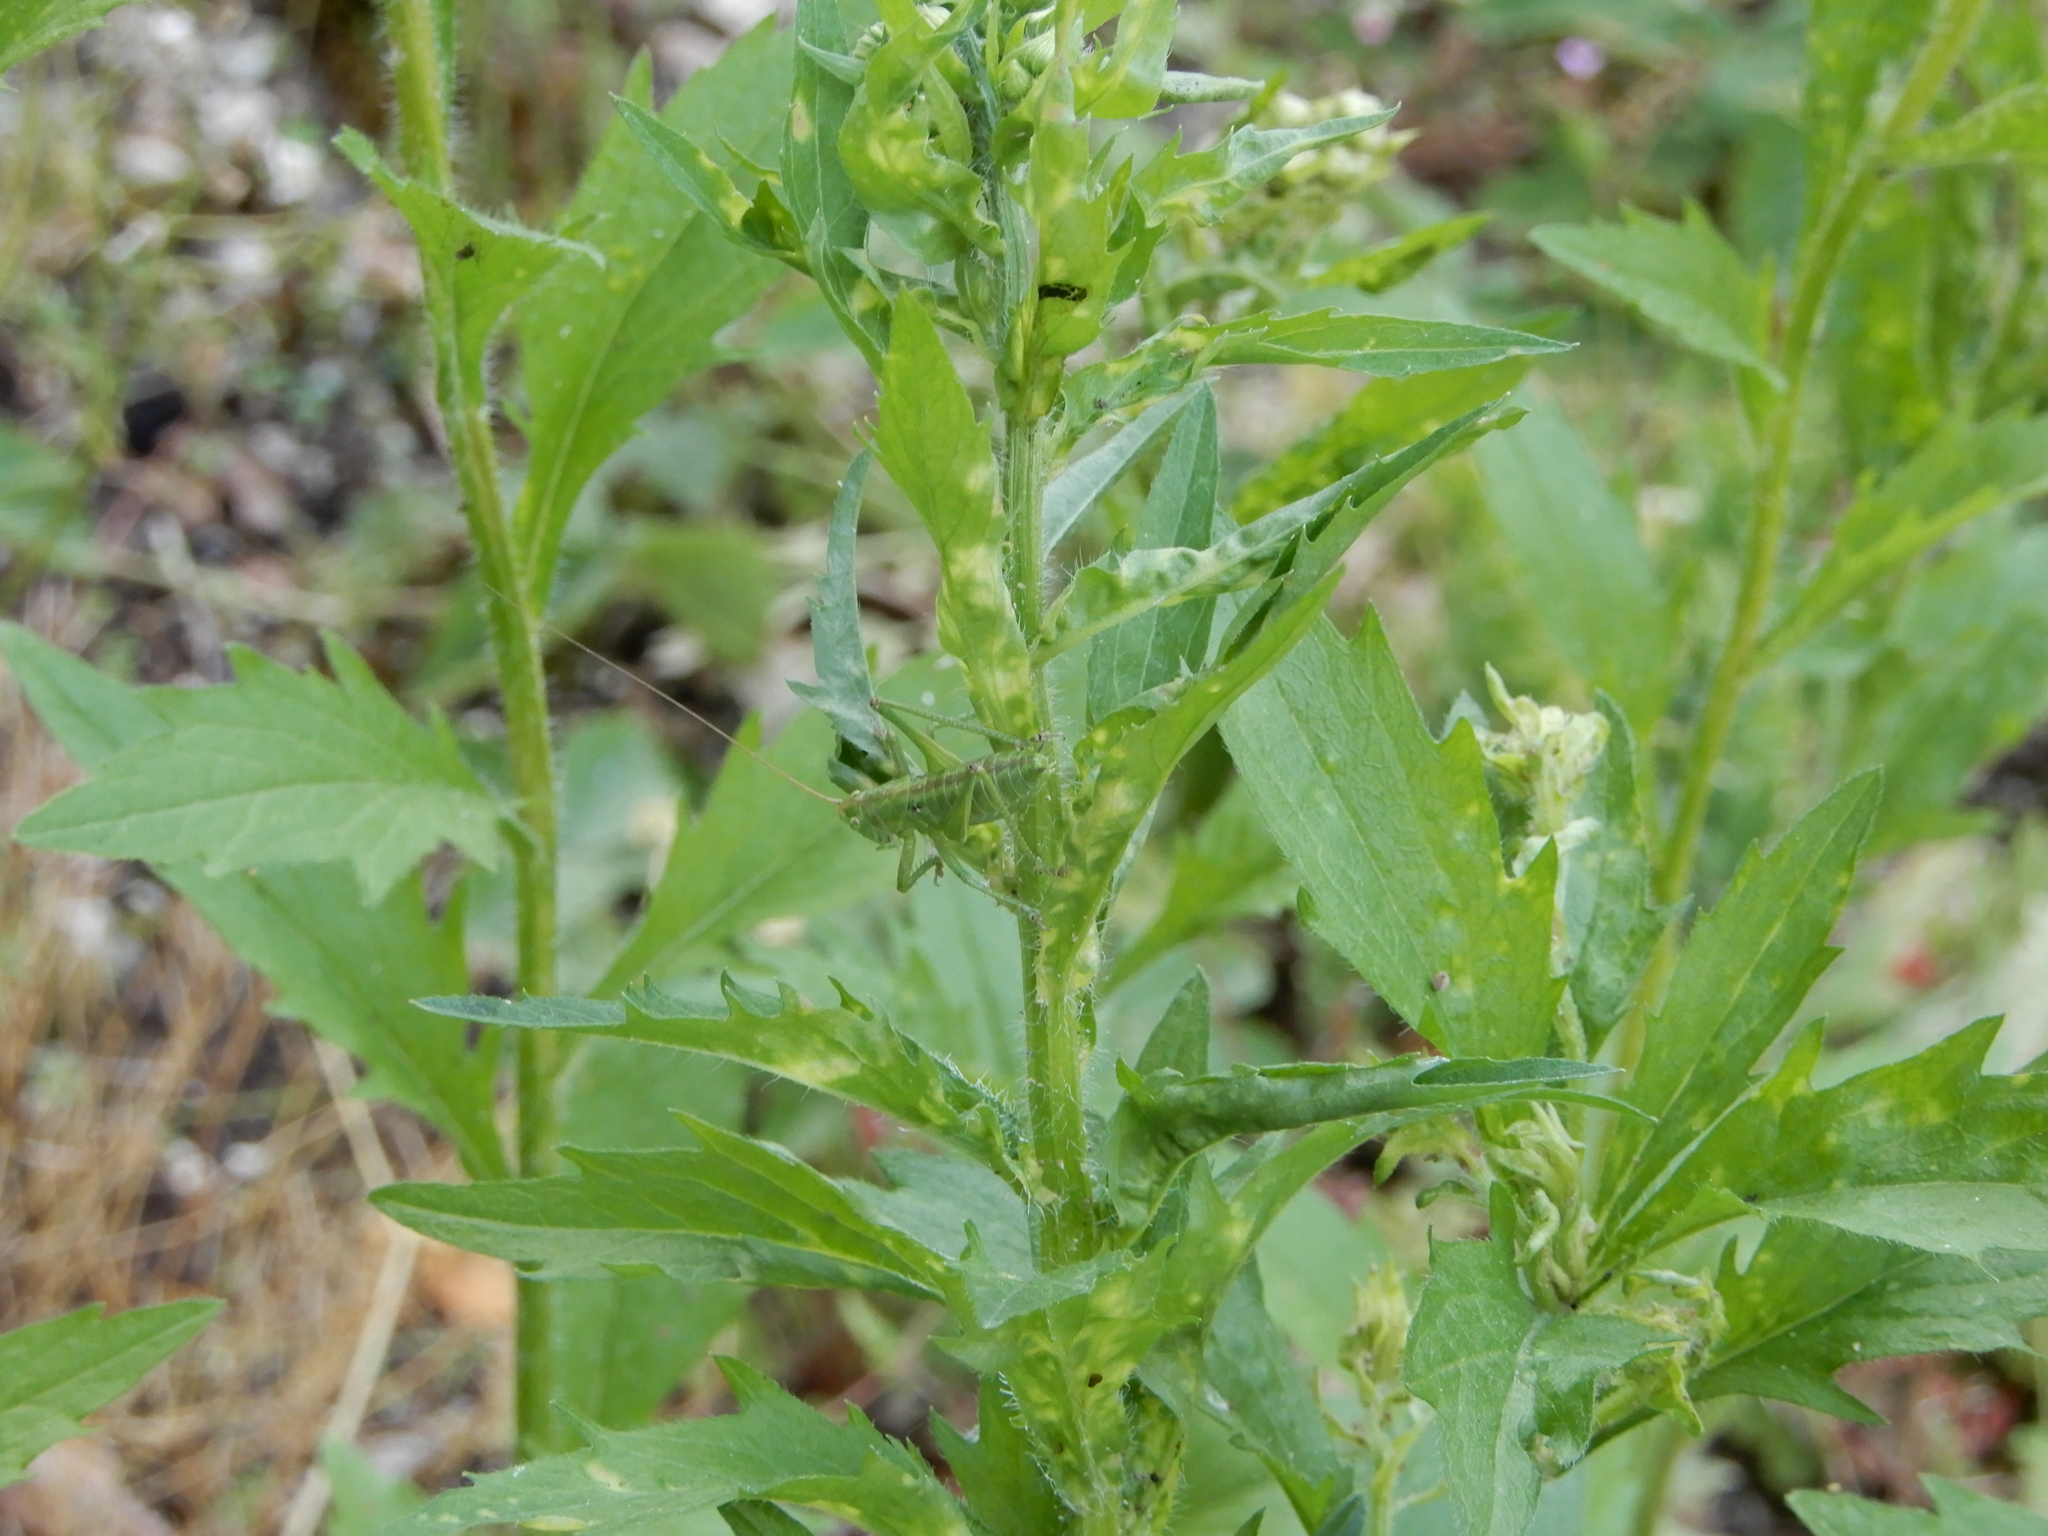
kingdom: Animalia
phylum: Arthropoda
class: Insecta
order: Orthoptera
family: Tettigoniidae
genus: Tettigonia
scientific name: Tettigonia viridissima
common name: Great green bush-cricket
